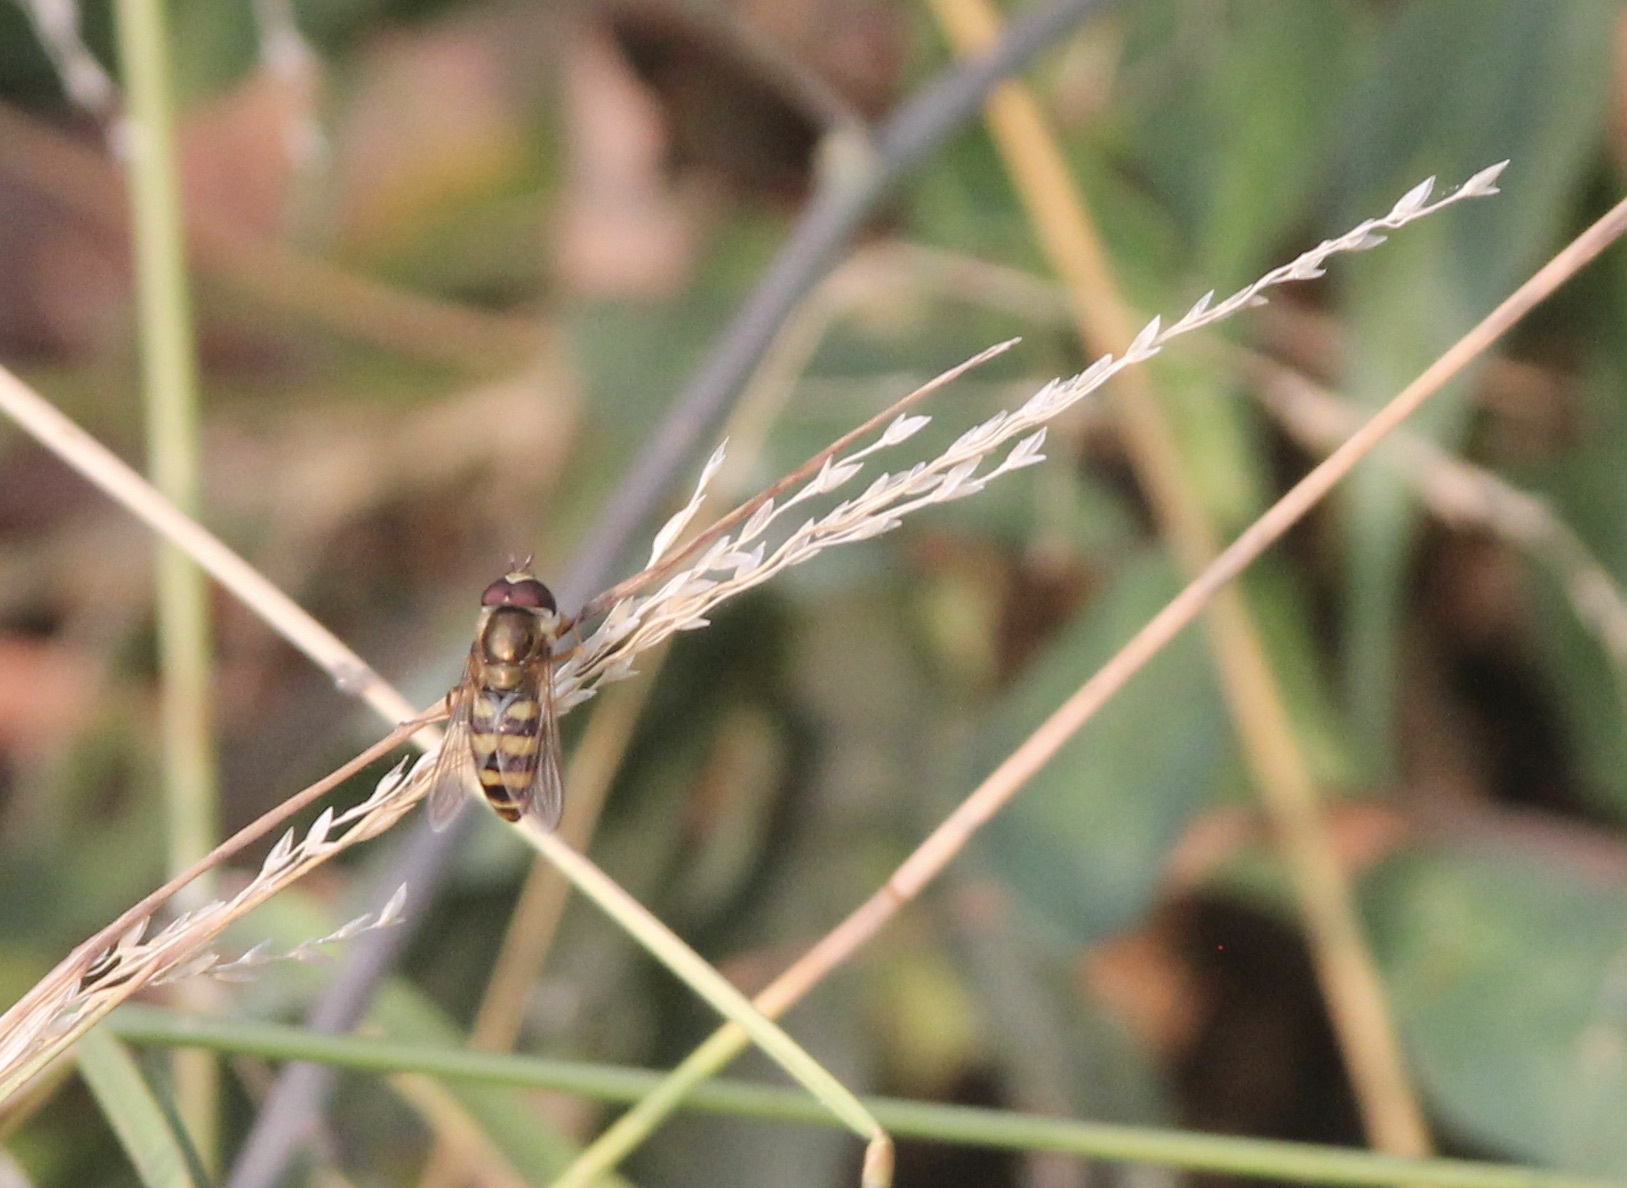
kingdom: Animalia
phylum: Arthropoda
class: Insecta
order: Diptera
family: Syrphidae
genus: Eupeodes
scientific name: Eupeodes fumipennis
